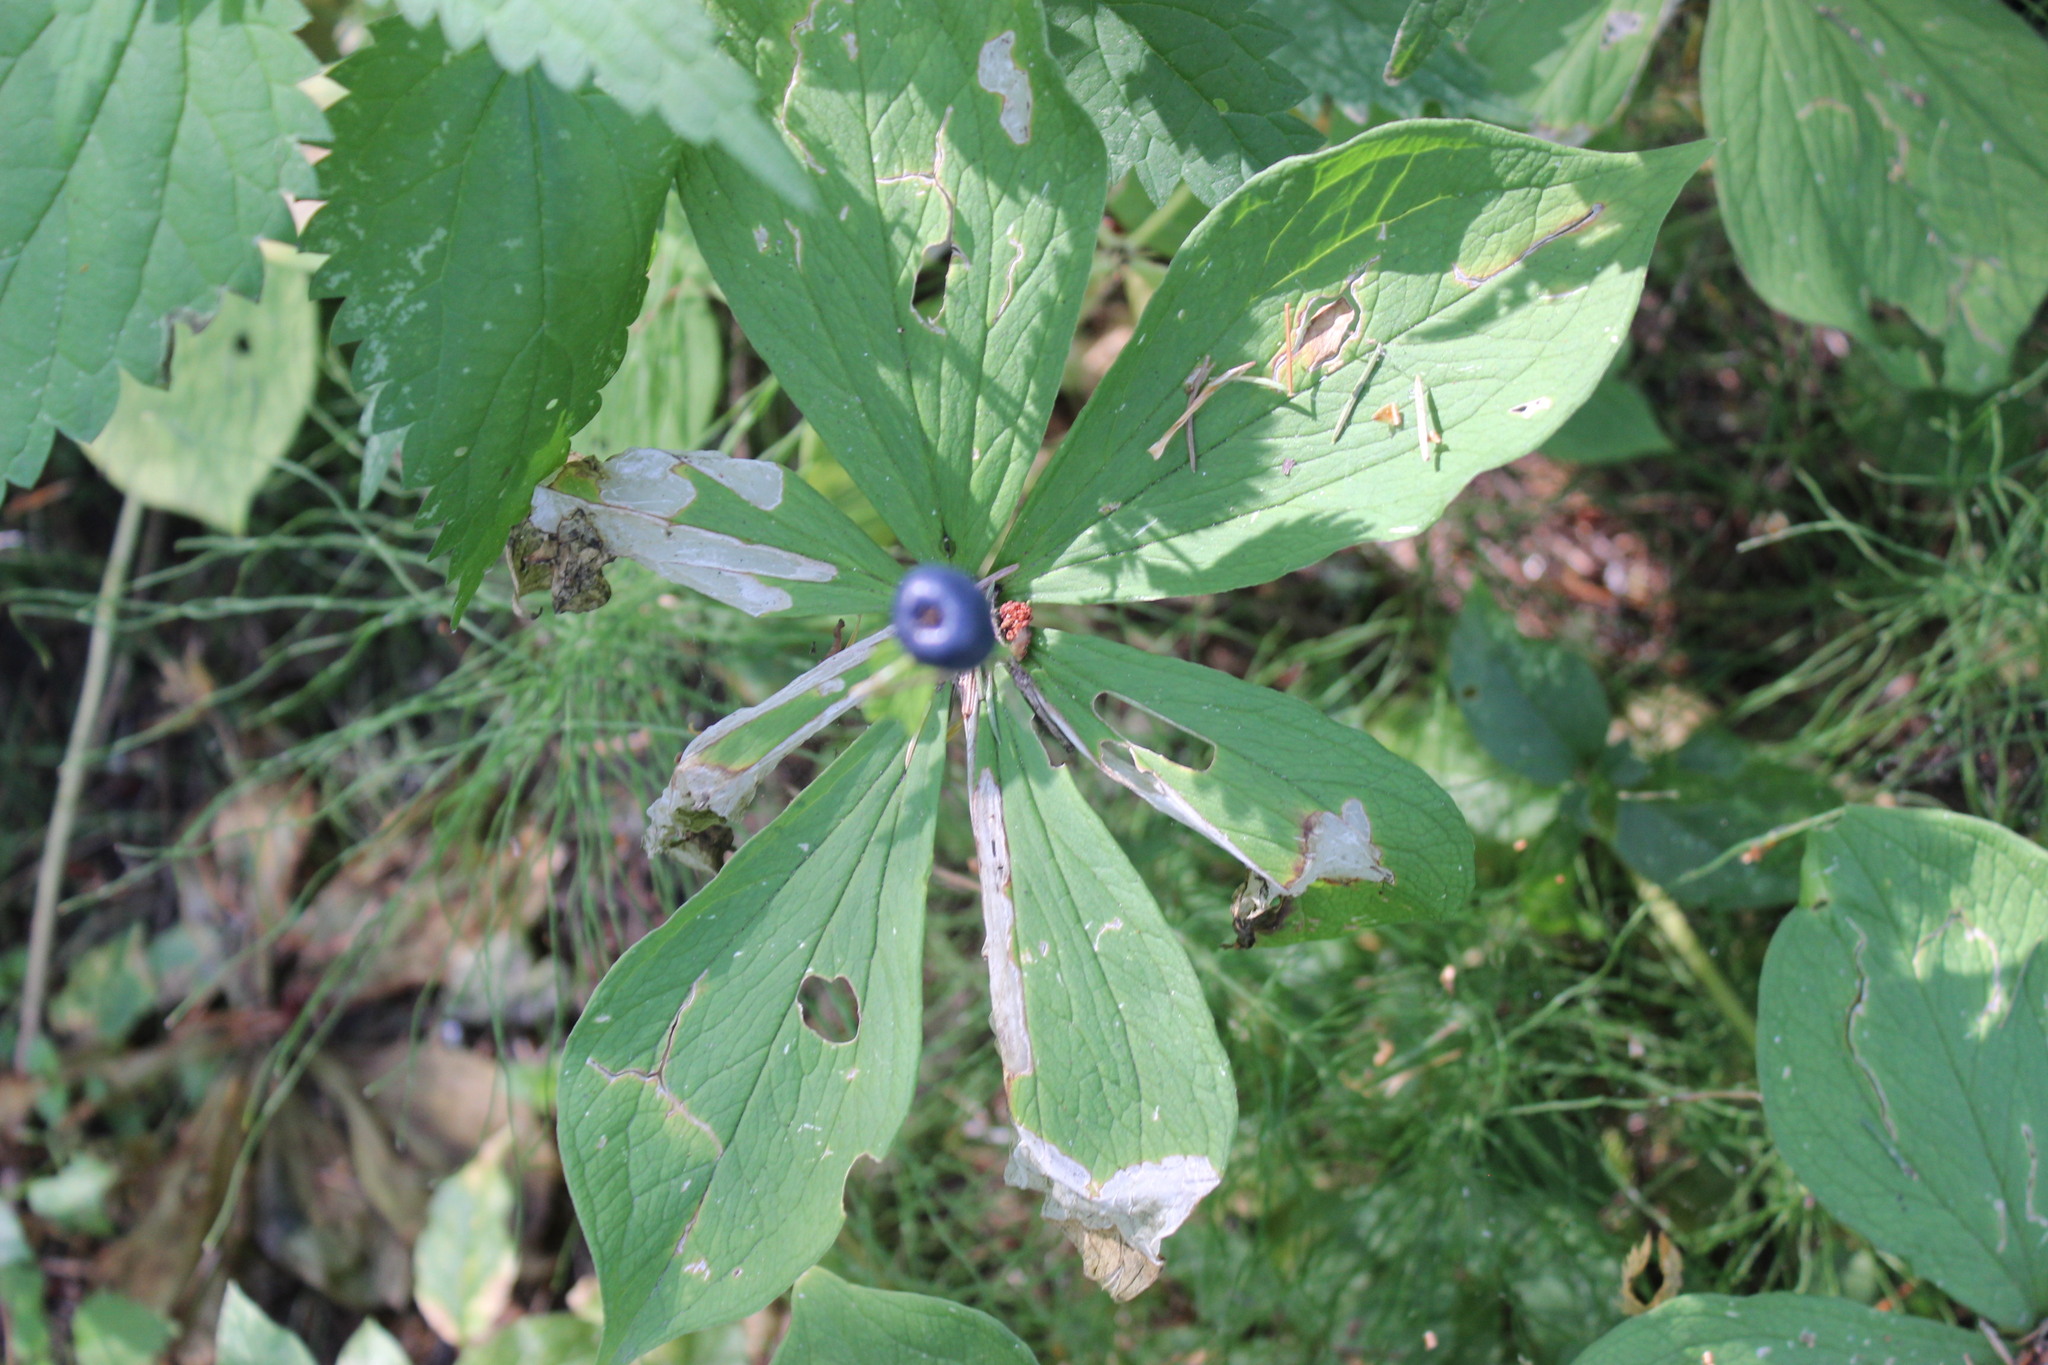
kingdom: Plantae
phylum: Tracheophyta
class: Liliopsida
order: Liliales
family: Melanthiaceae
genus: Paris
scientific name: Paris quadrifolia
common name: Herb-paris
